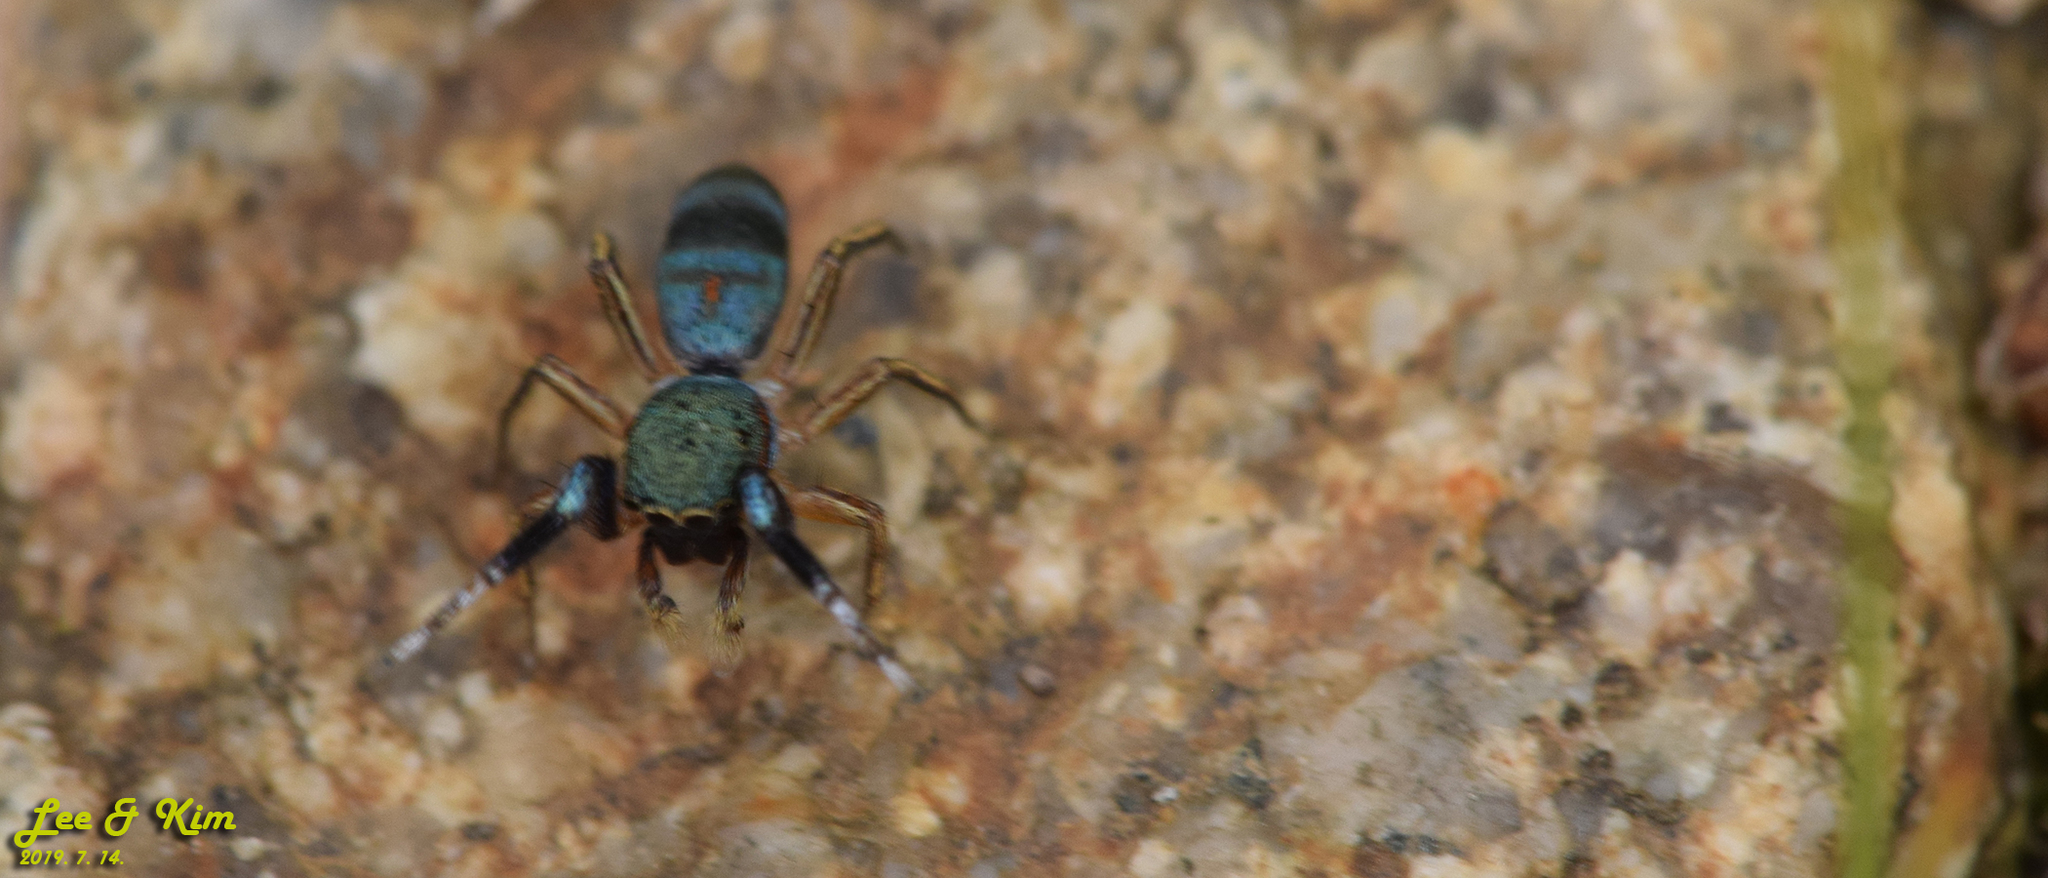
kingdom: Animalia
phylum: Arthropoda
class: Arachnida
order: Araneae
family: Salticidae
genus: Siler
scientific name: Siler cupreus
